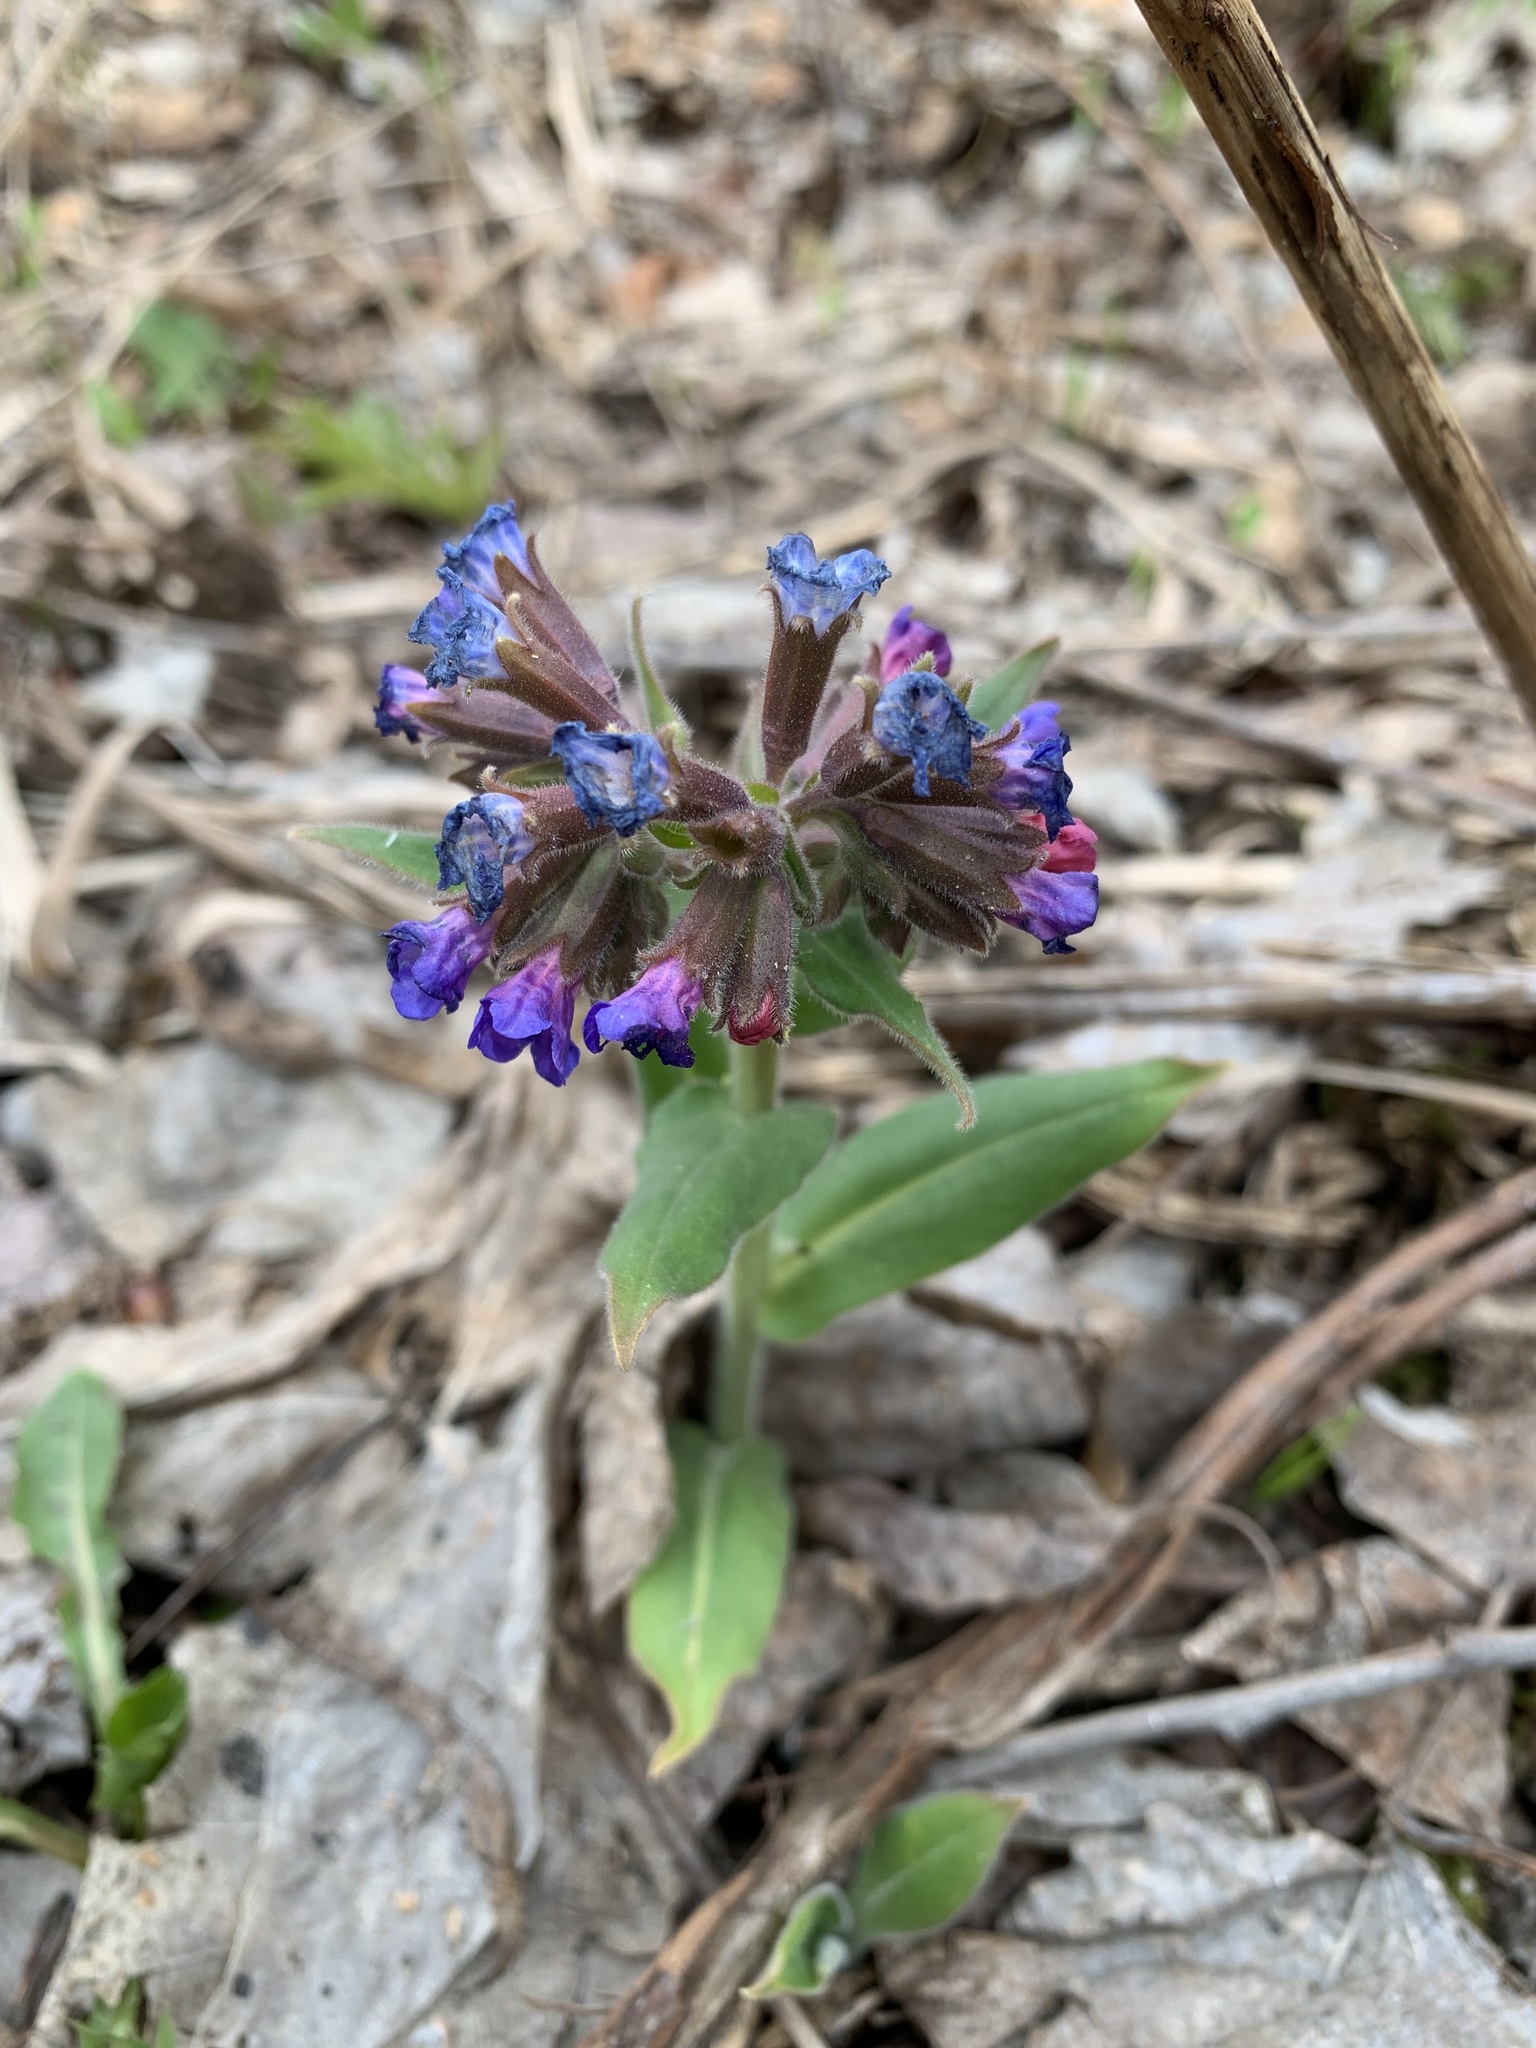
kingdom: Plantae
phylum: Tracheophyta
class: Magnoliopsida
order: Boraginales
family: Boraginaceae
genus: Pulmonaria
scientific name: Pulmonaria mollis
